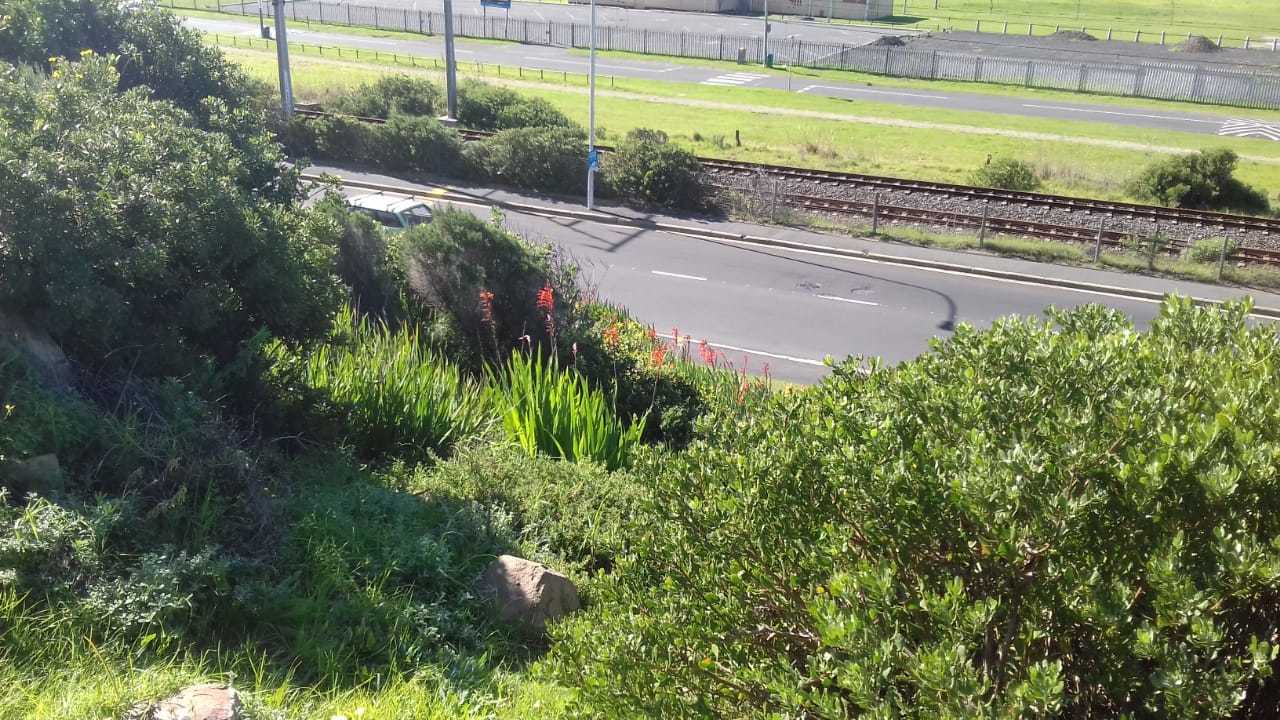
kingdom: Plantae
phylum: Tracheophyta
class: Liliopsida
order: Asparagales
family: Iridaceae
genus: Chasmanthe
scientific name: Chasmanthe floribunda
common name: African cornflag
